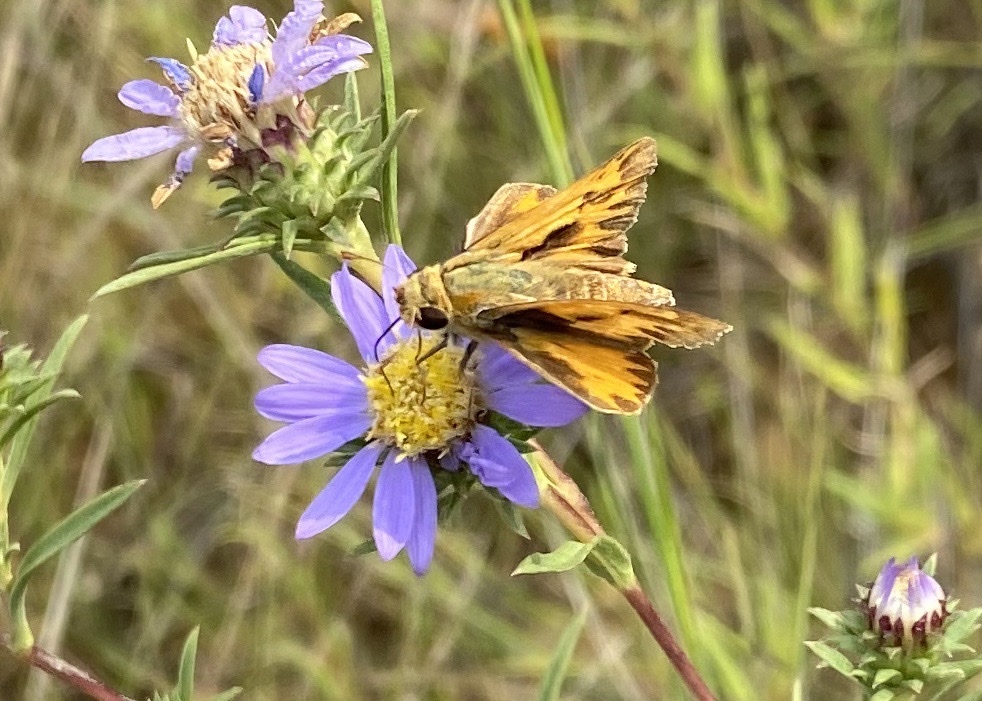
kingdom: Animalia
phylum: Arthropoda
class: Insecta
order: Lepidoptera
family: Hesperiidae
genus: Hylephila
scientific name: Hylephila phyleus
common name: Fiery skipper
